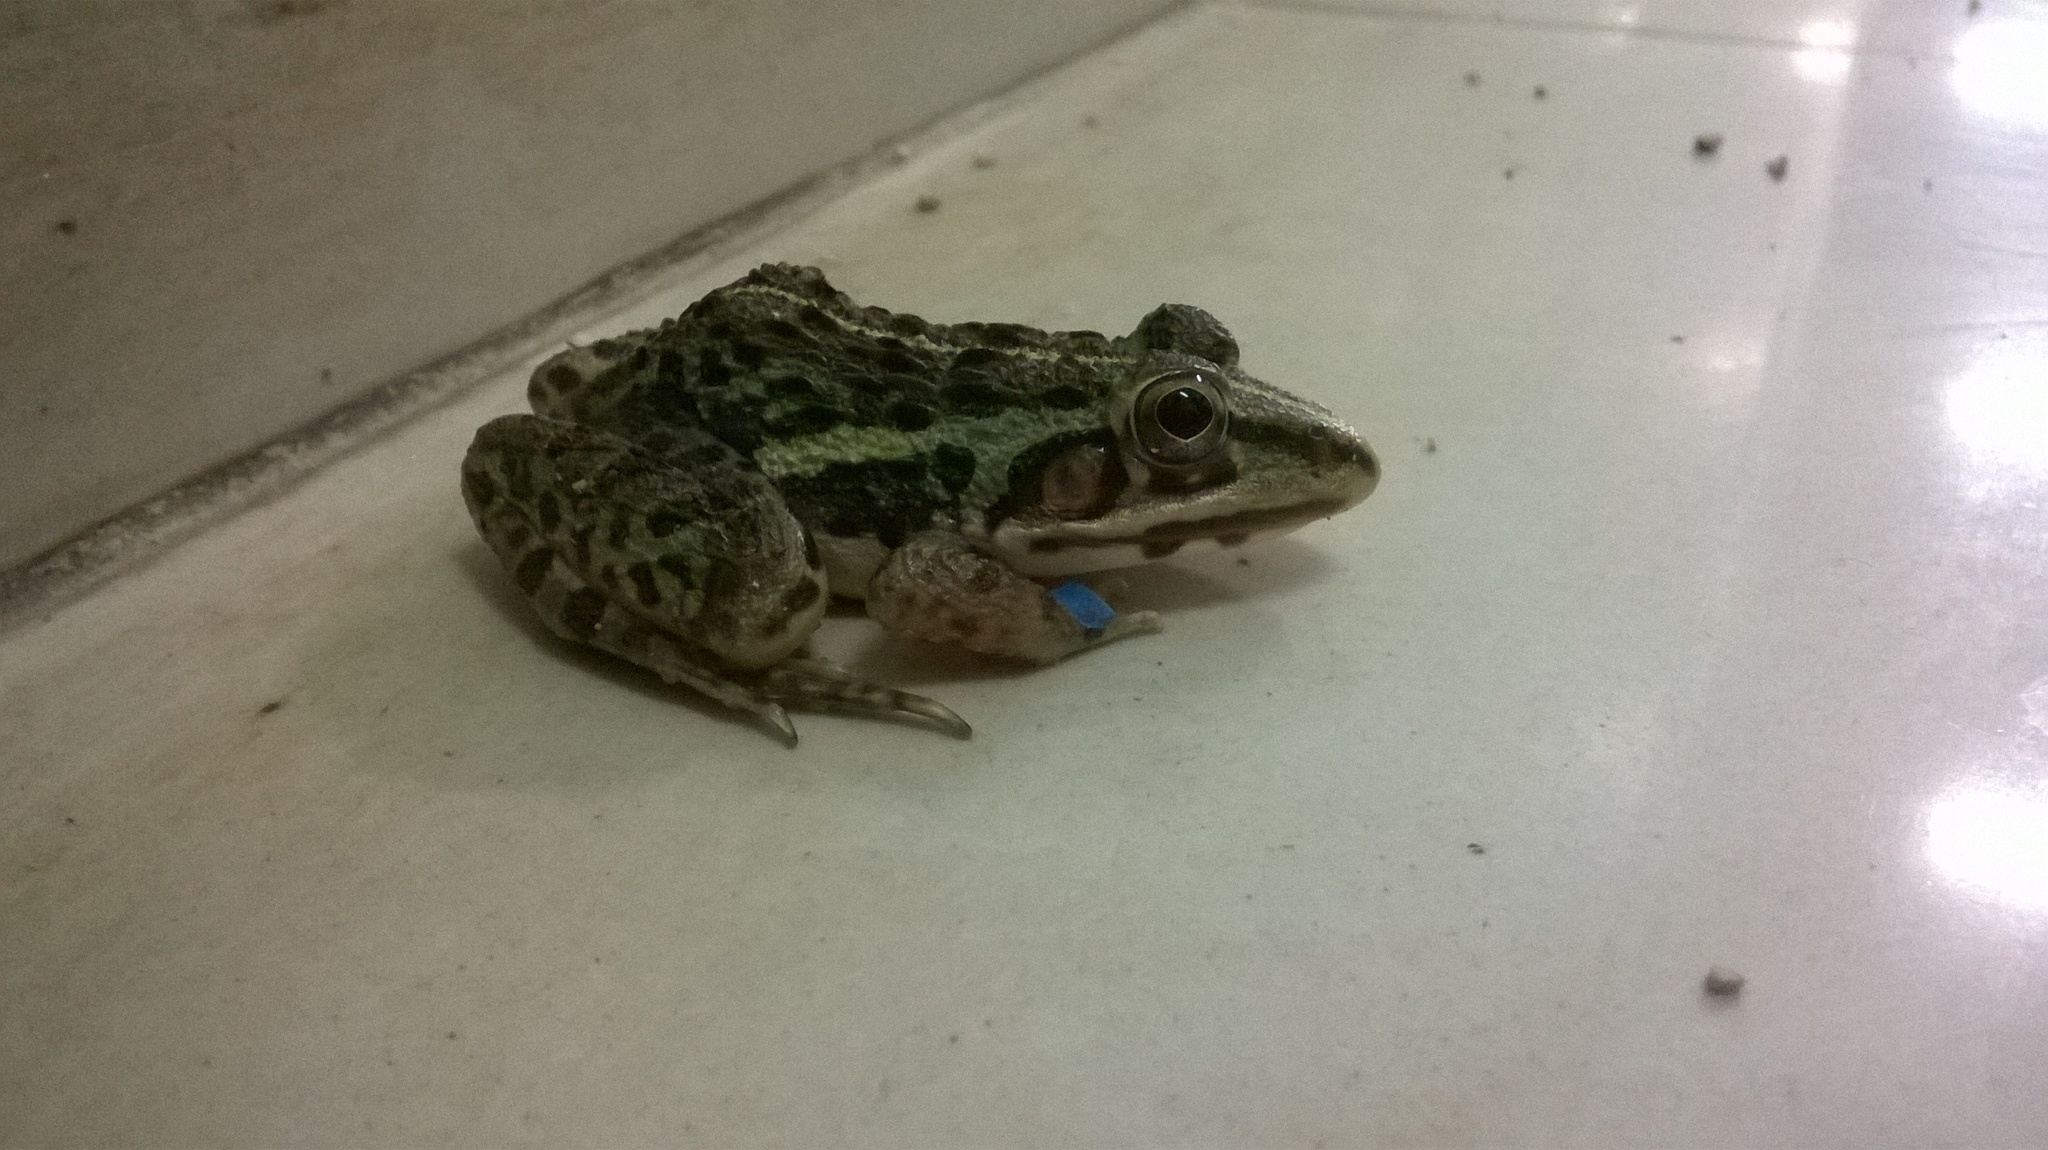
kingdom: Animalia
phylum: Chordata
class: Amphibia
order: Anura
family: Dicroglossidae
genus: Hoplobatrachus
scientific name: Hoplobatrachus tigerinus
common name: Indian bullfrog
